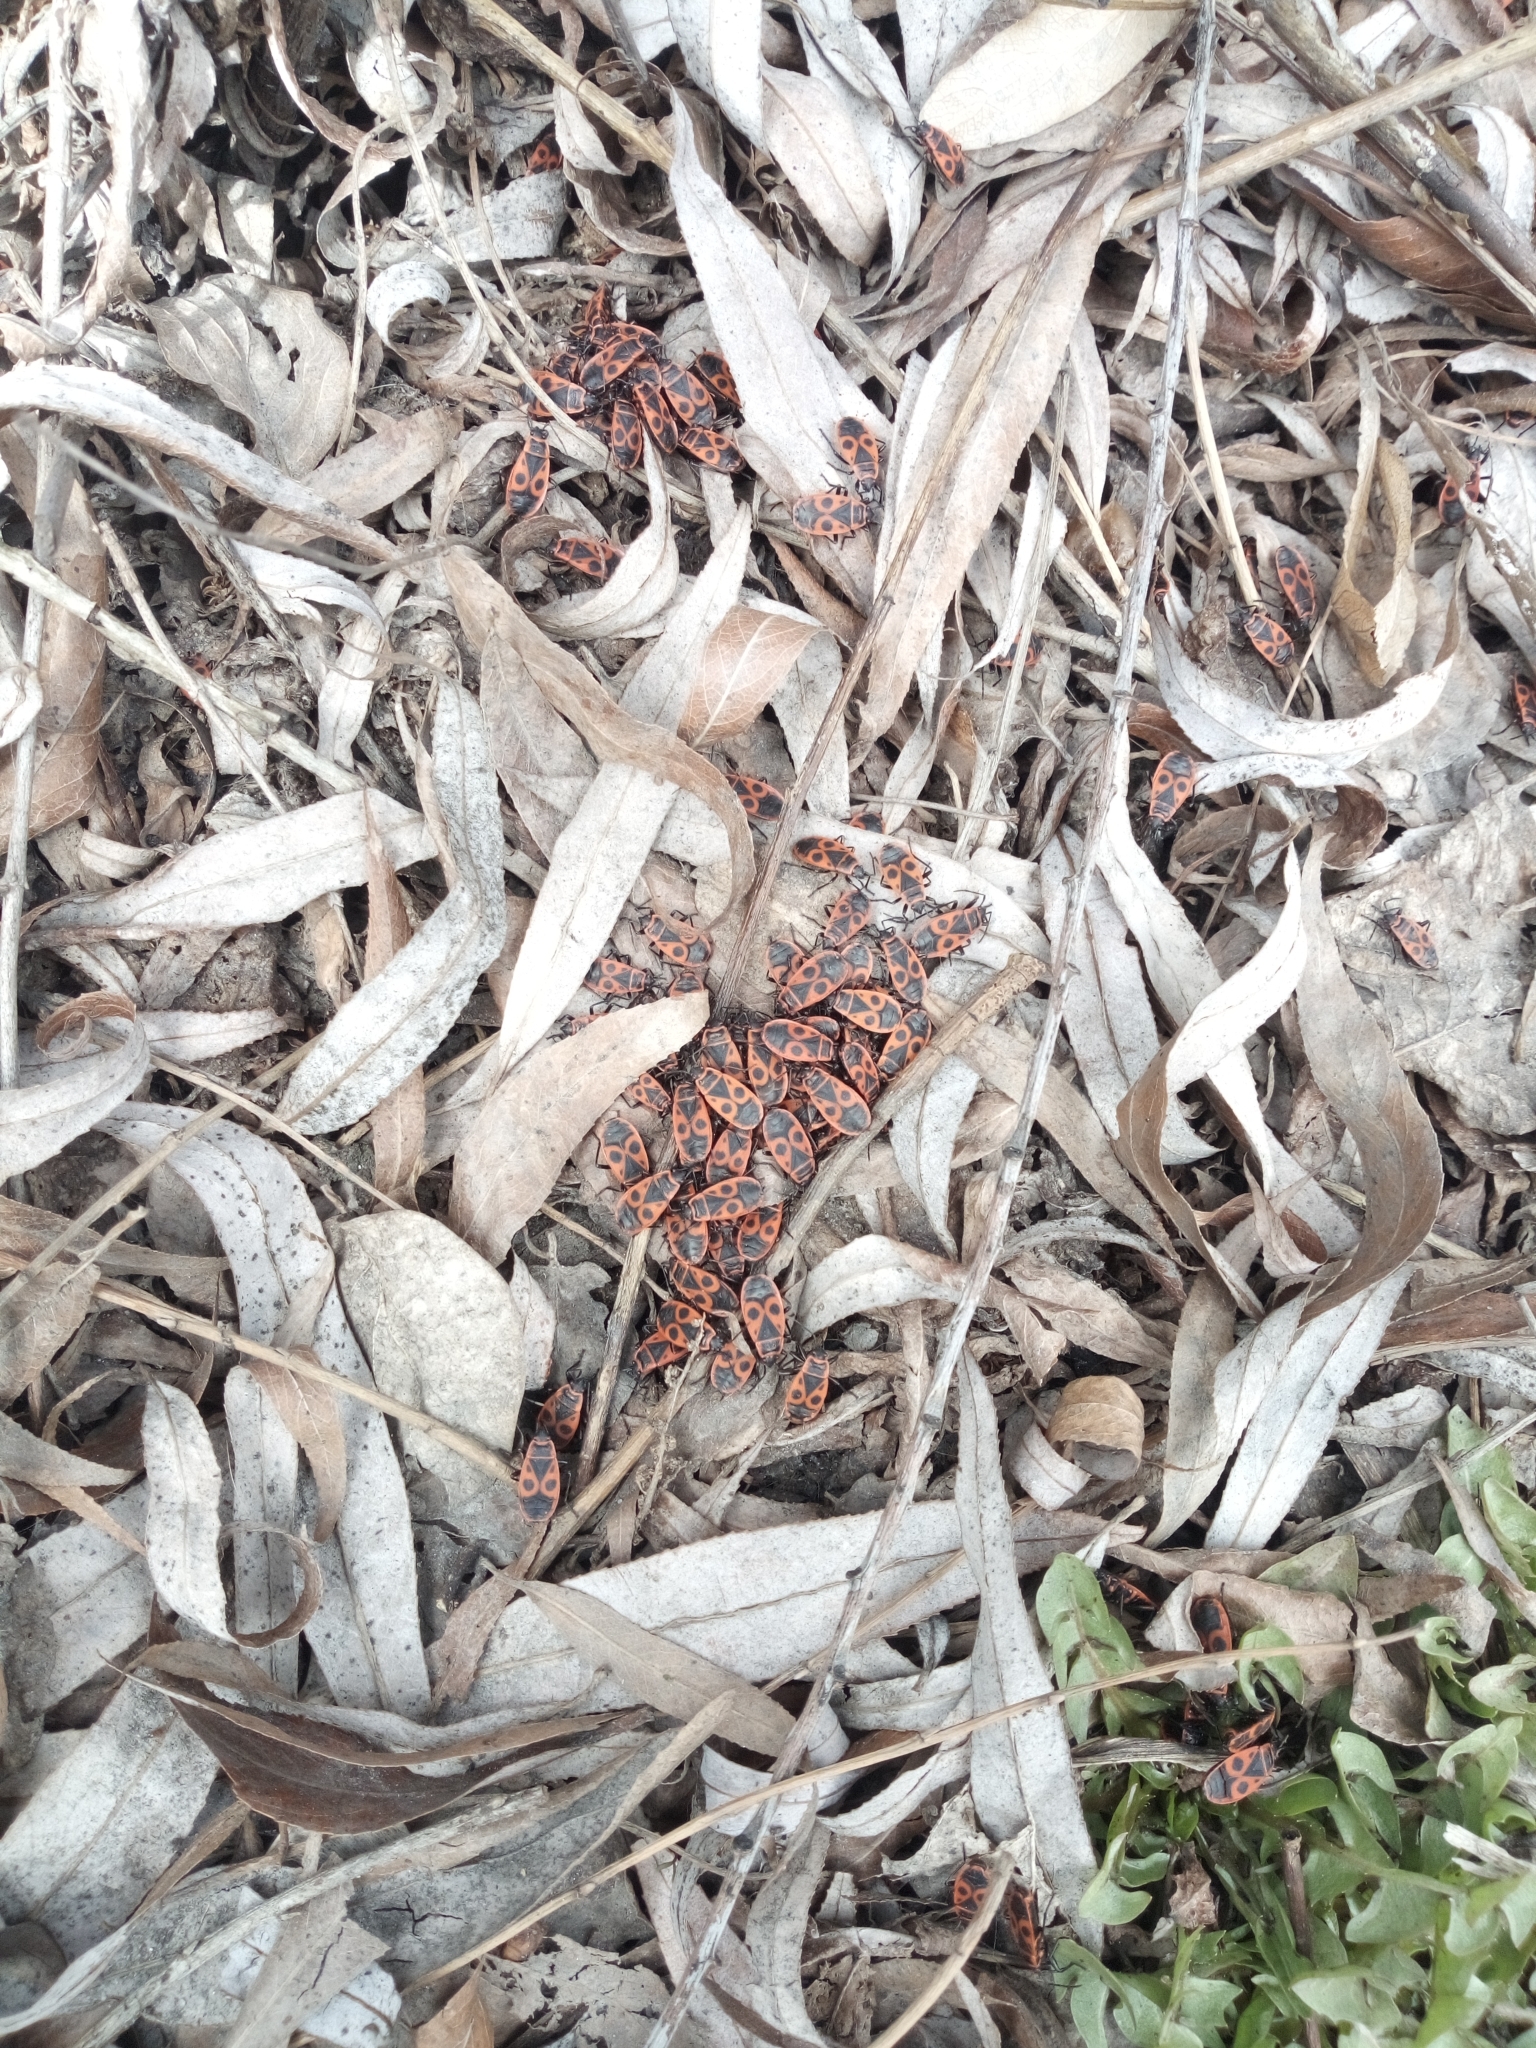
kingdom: Animalia
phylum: Arthropoda
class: Insecta
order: Hemiptera
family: Pyrrhocoridae
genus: Pyrrhocoris
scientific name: Pyrrhocoris apterus
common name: Firebug
